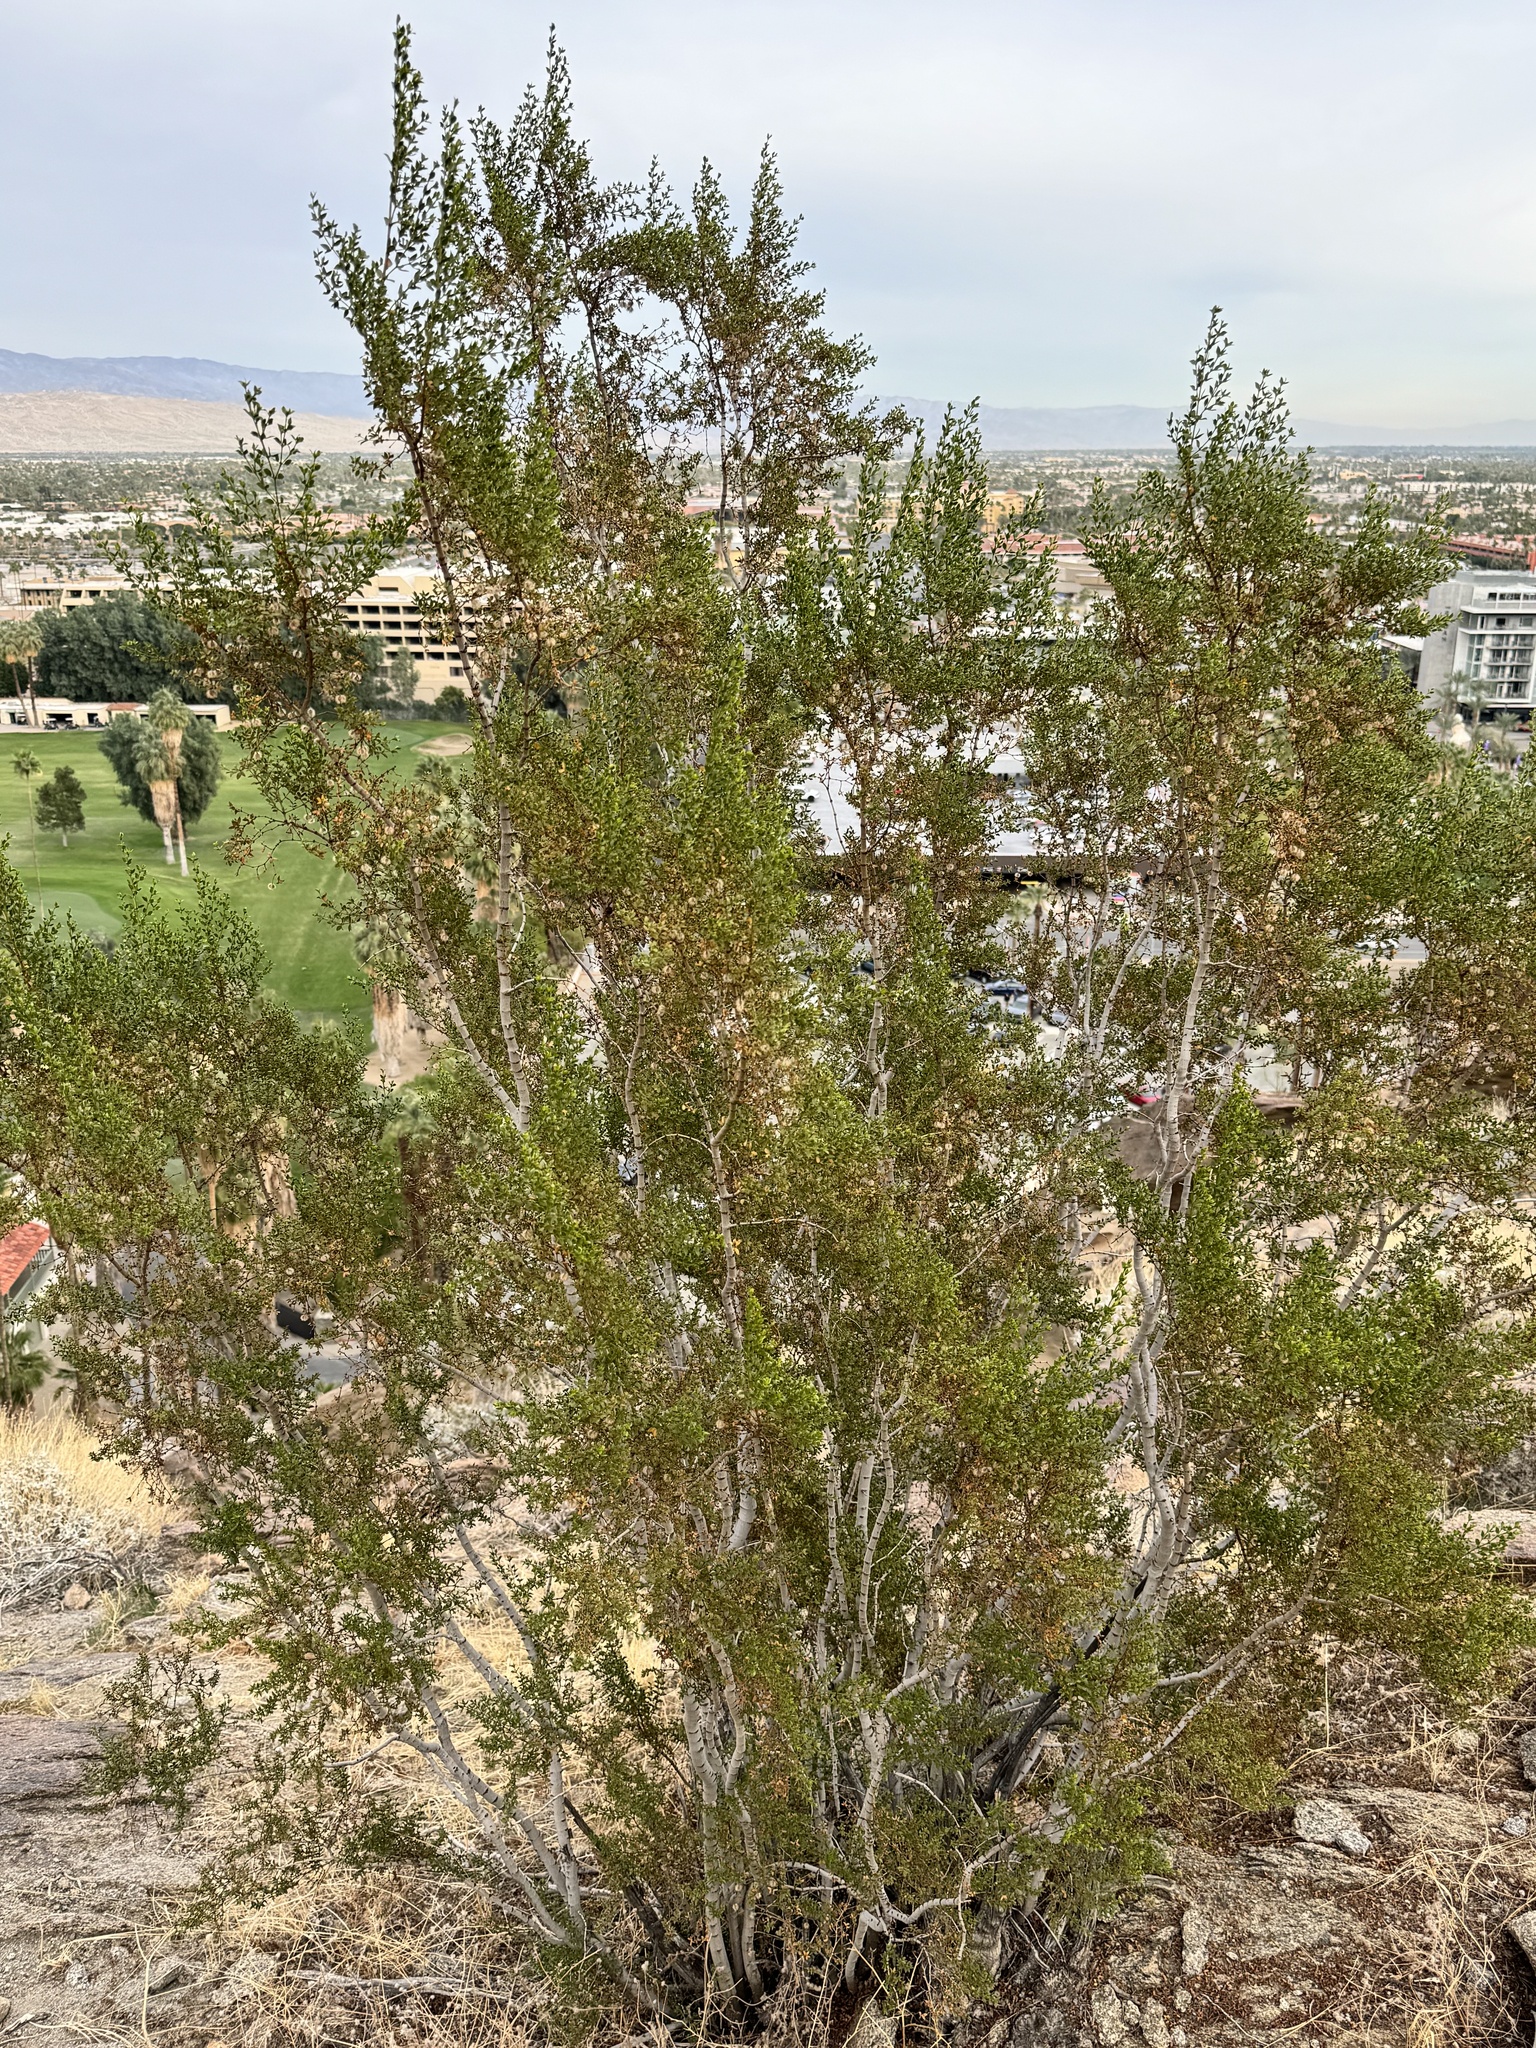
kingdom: Plantae
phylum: Tracheophyta
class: Magnoliopsida
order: Zygophyllales
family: Zygophyllaceae
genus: Larrea
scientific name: Larrea tridentata
